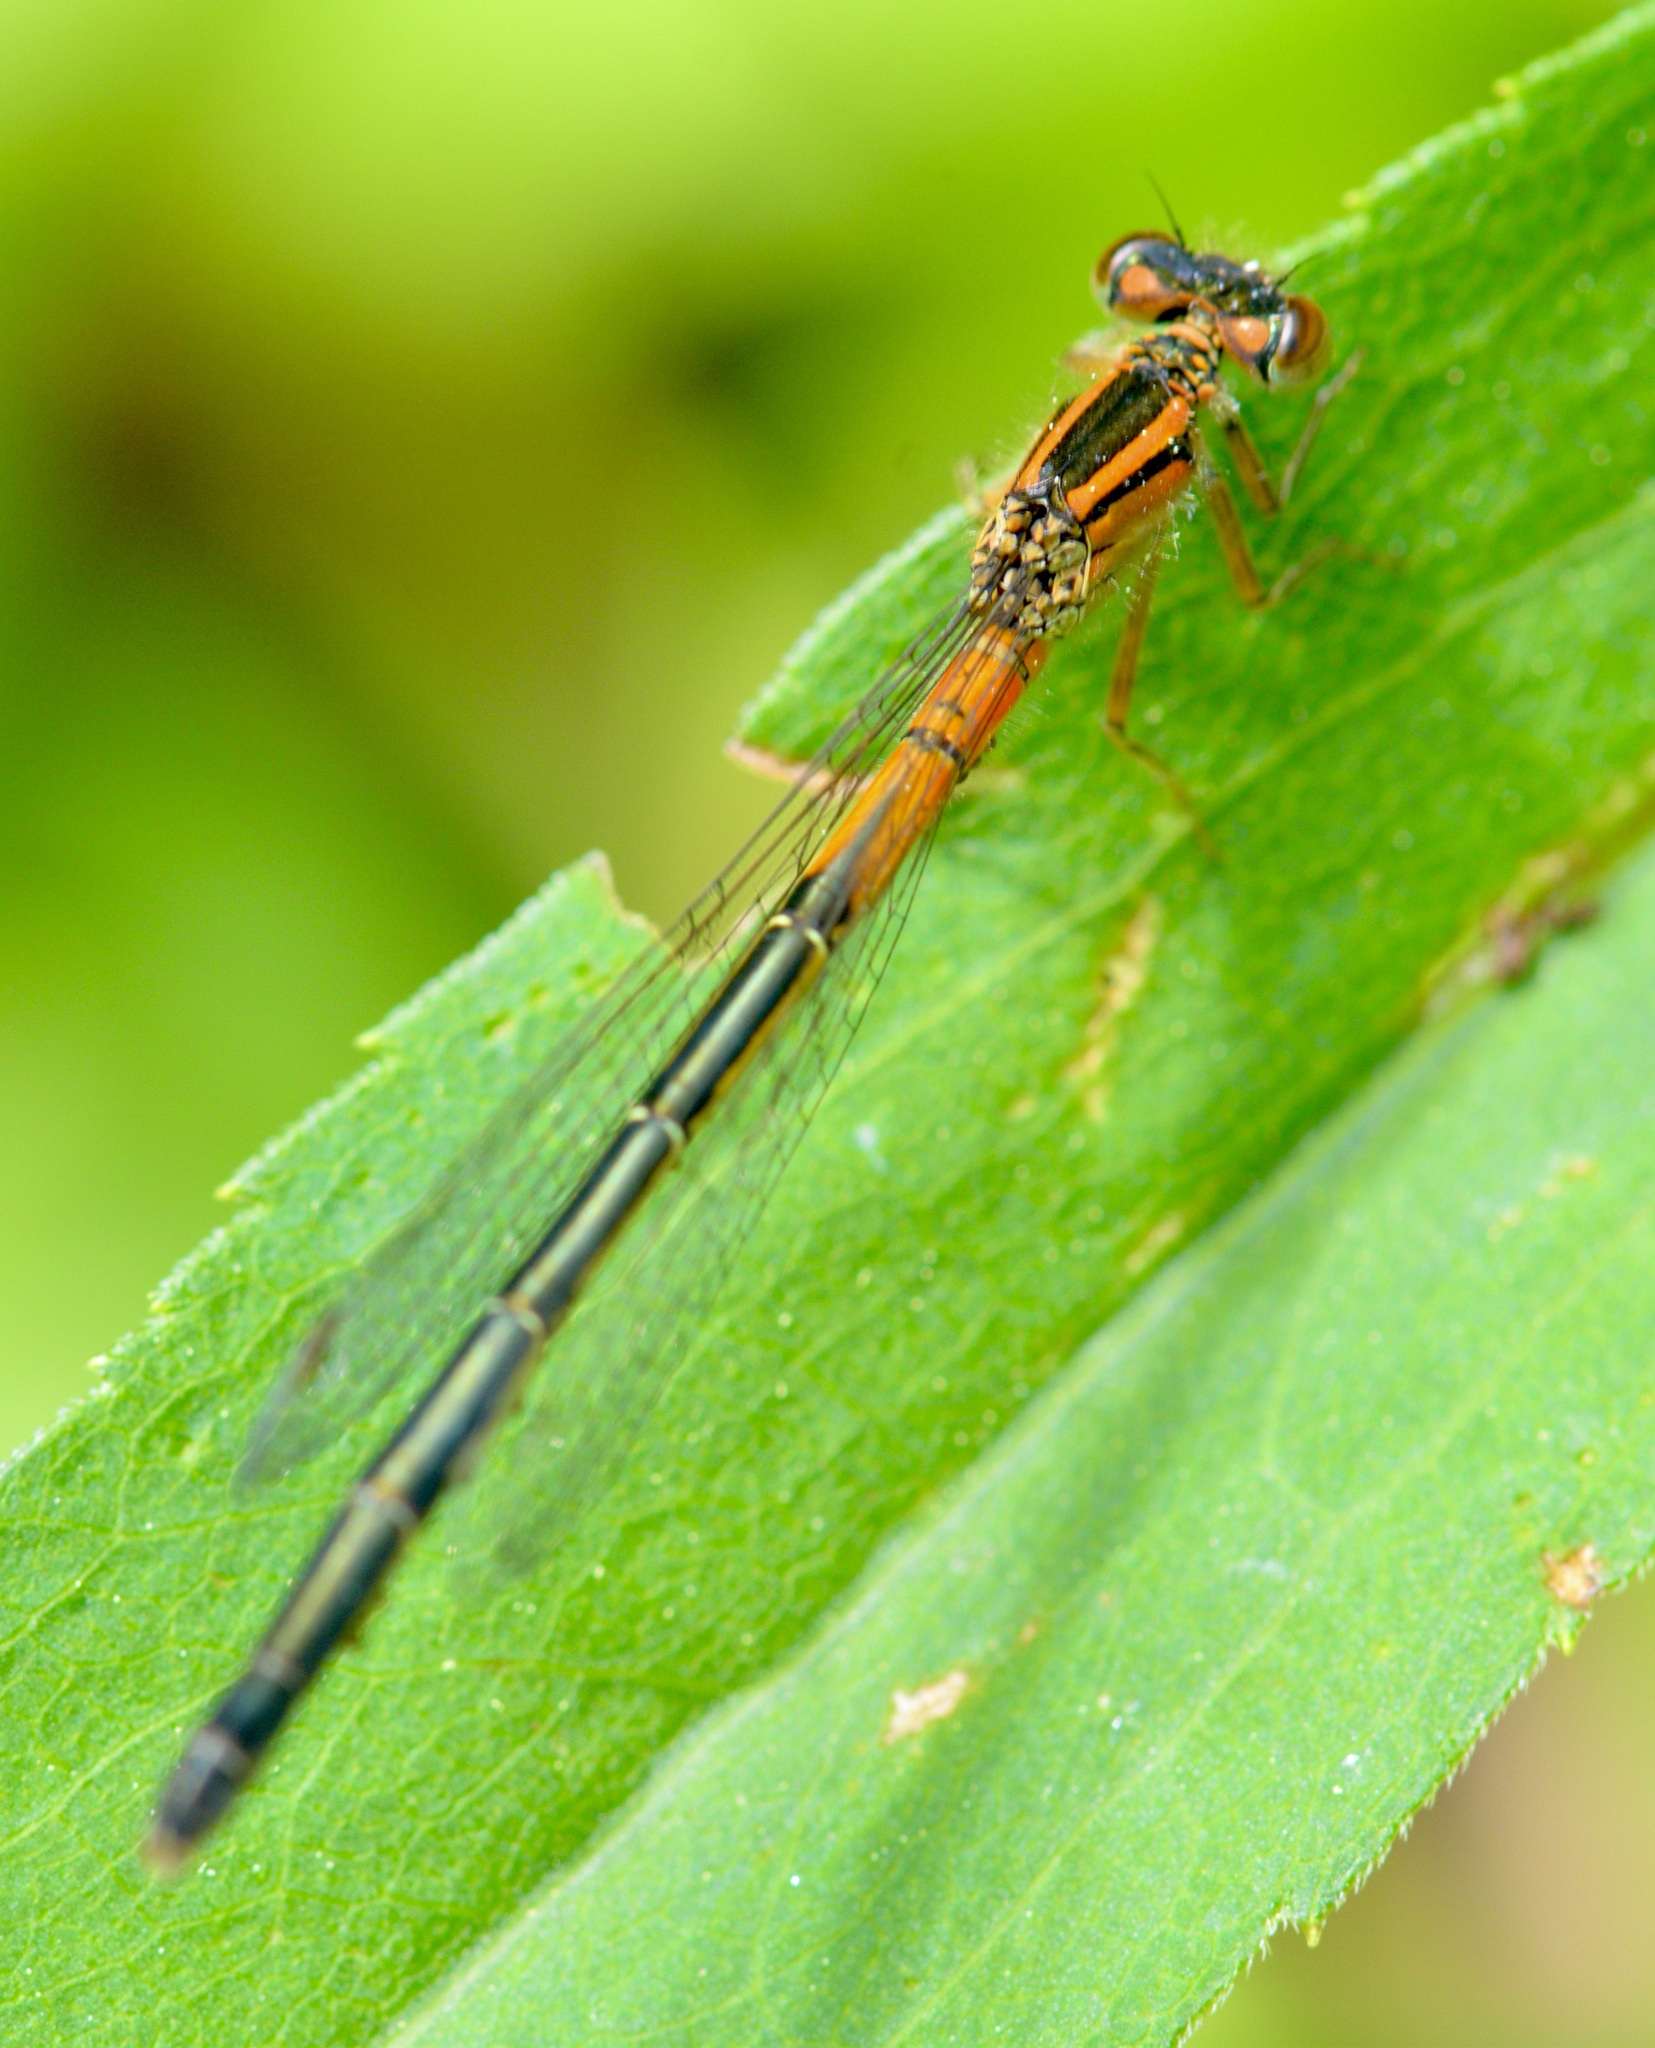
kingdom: Animalia
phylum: Arthropoda
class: Insecta
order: Odonata
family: Coenagrionidae
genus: Ischnura
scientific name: Ischnura verticalis
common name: Eastern forktail
